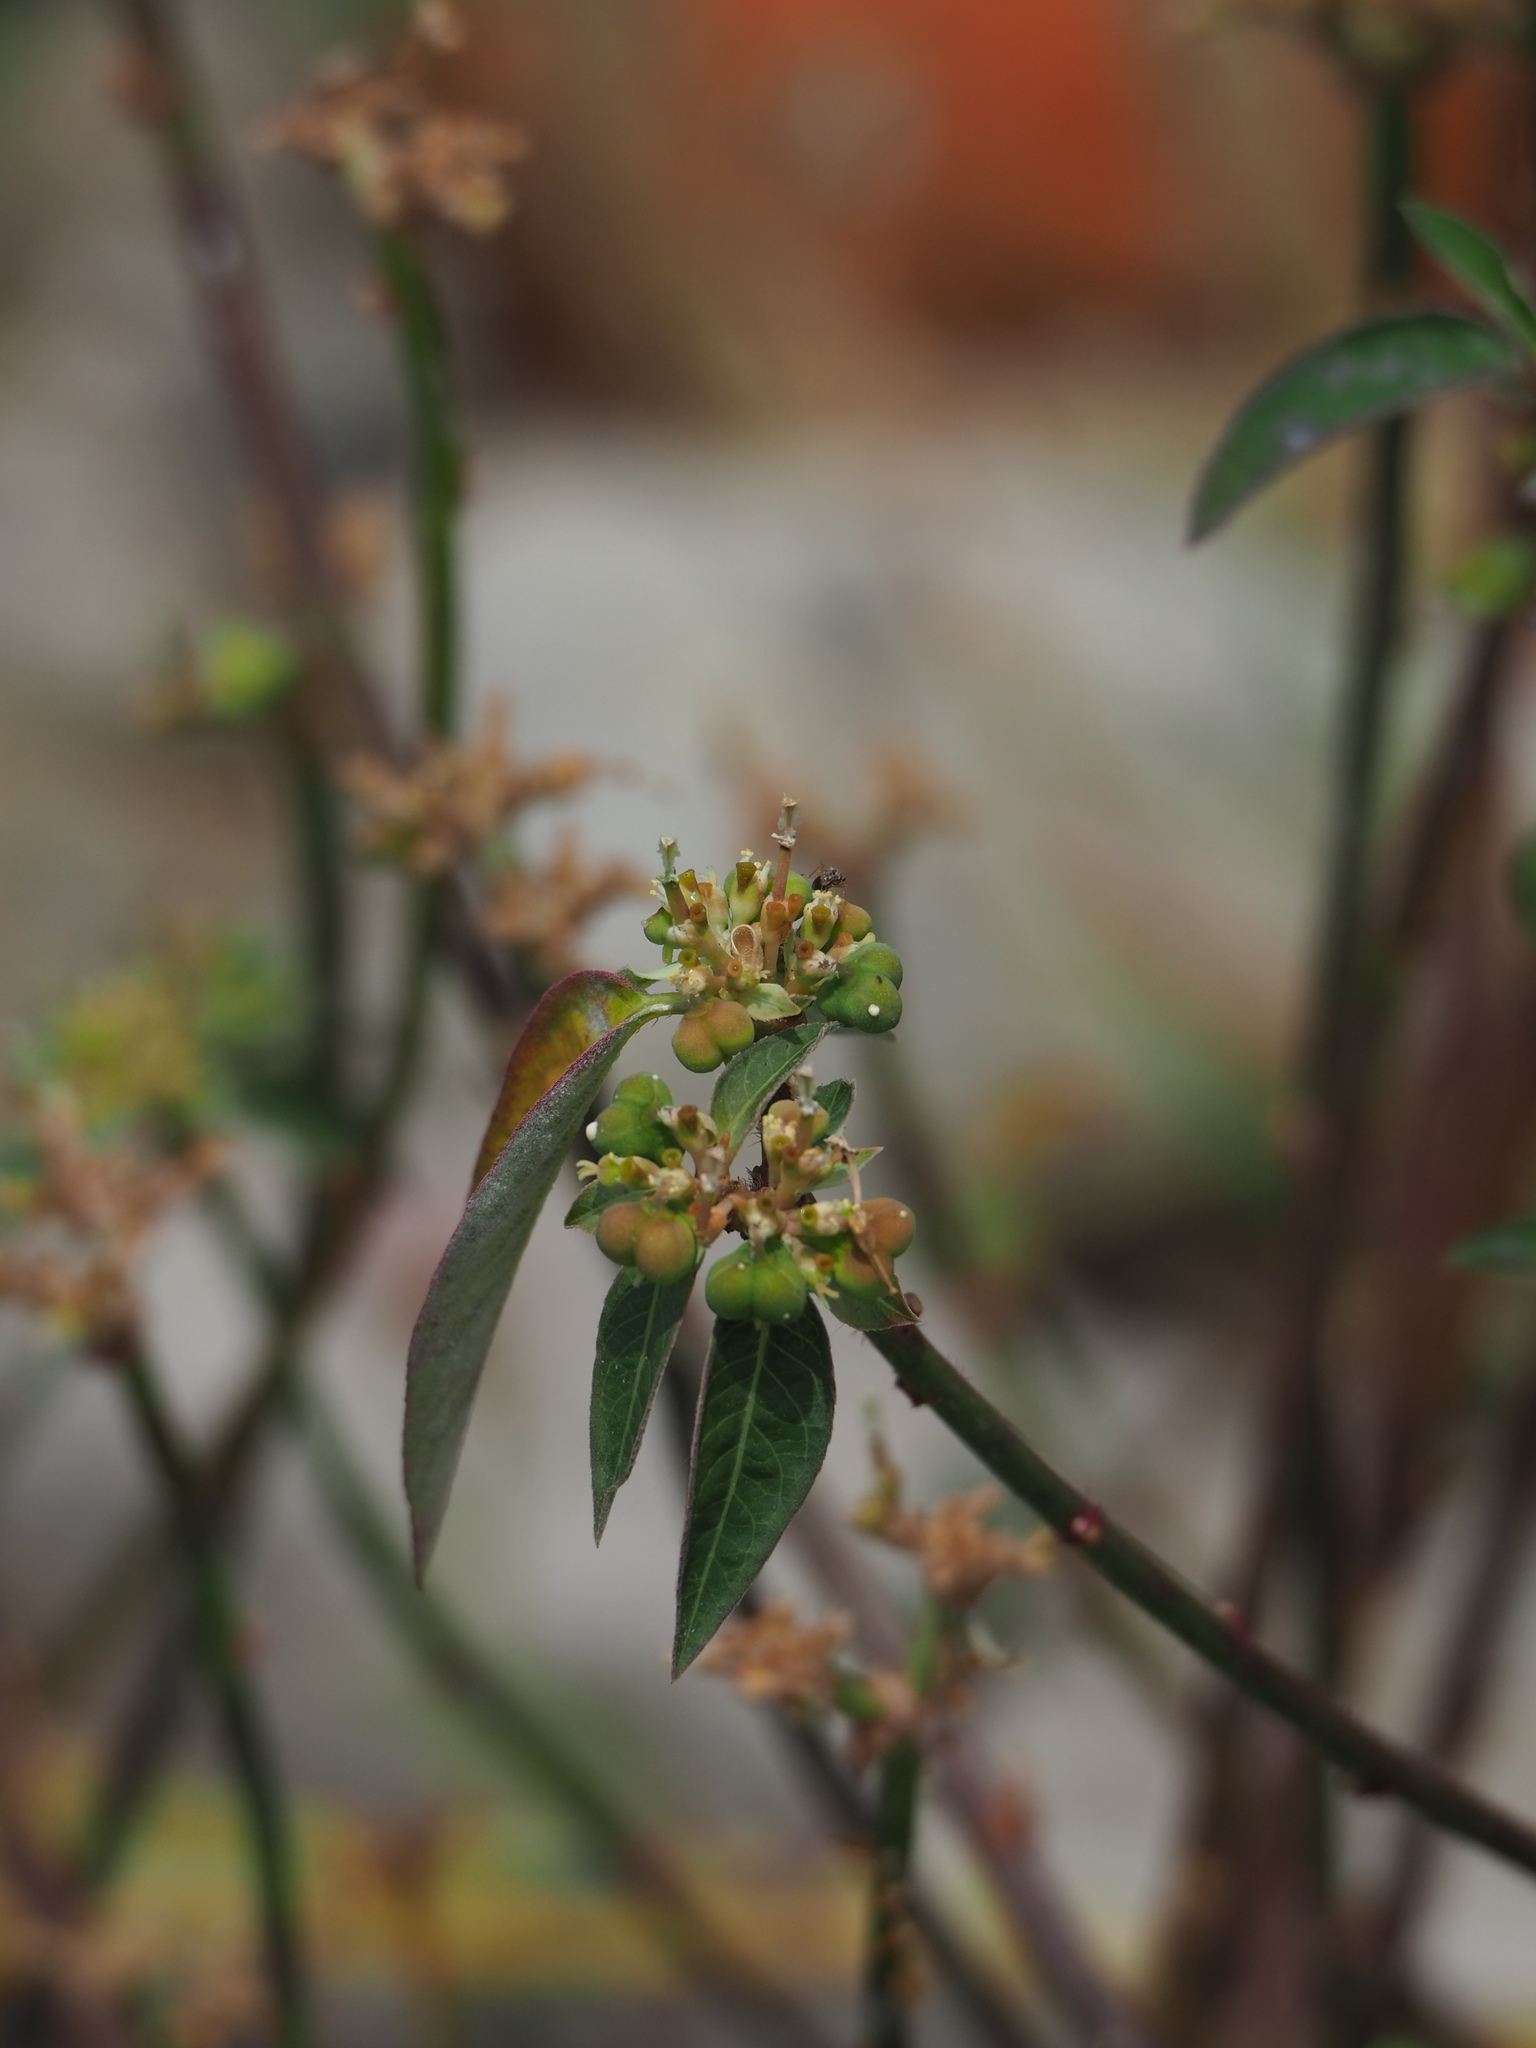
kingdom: Plantae
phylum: Tracheophyta
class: Magnoliopsida
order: Malpighiales
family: Euphorbiaceae
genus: Euphorbia
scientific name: Euphorbia heterophylla
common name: Mexican fireplant
